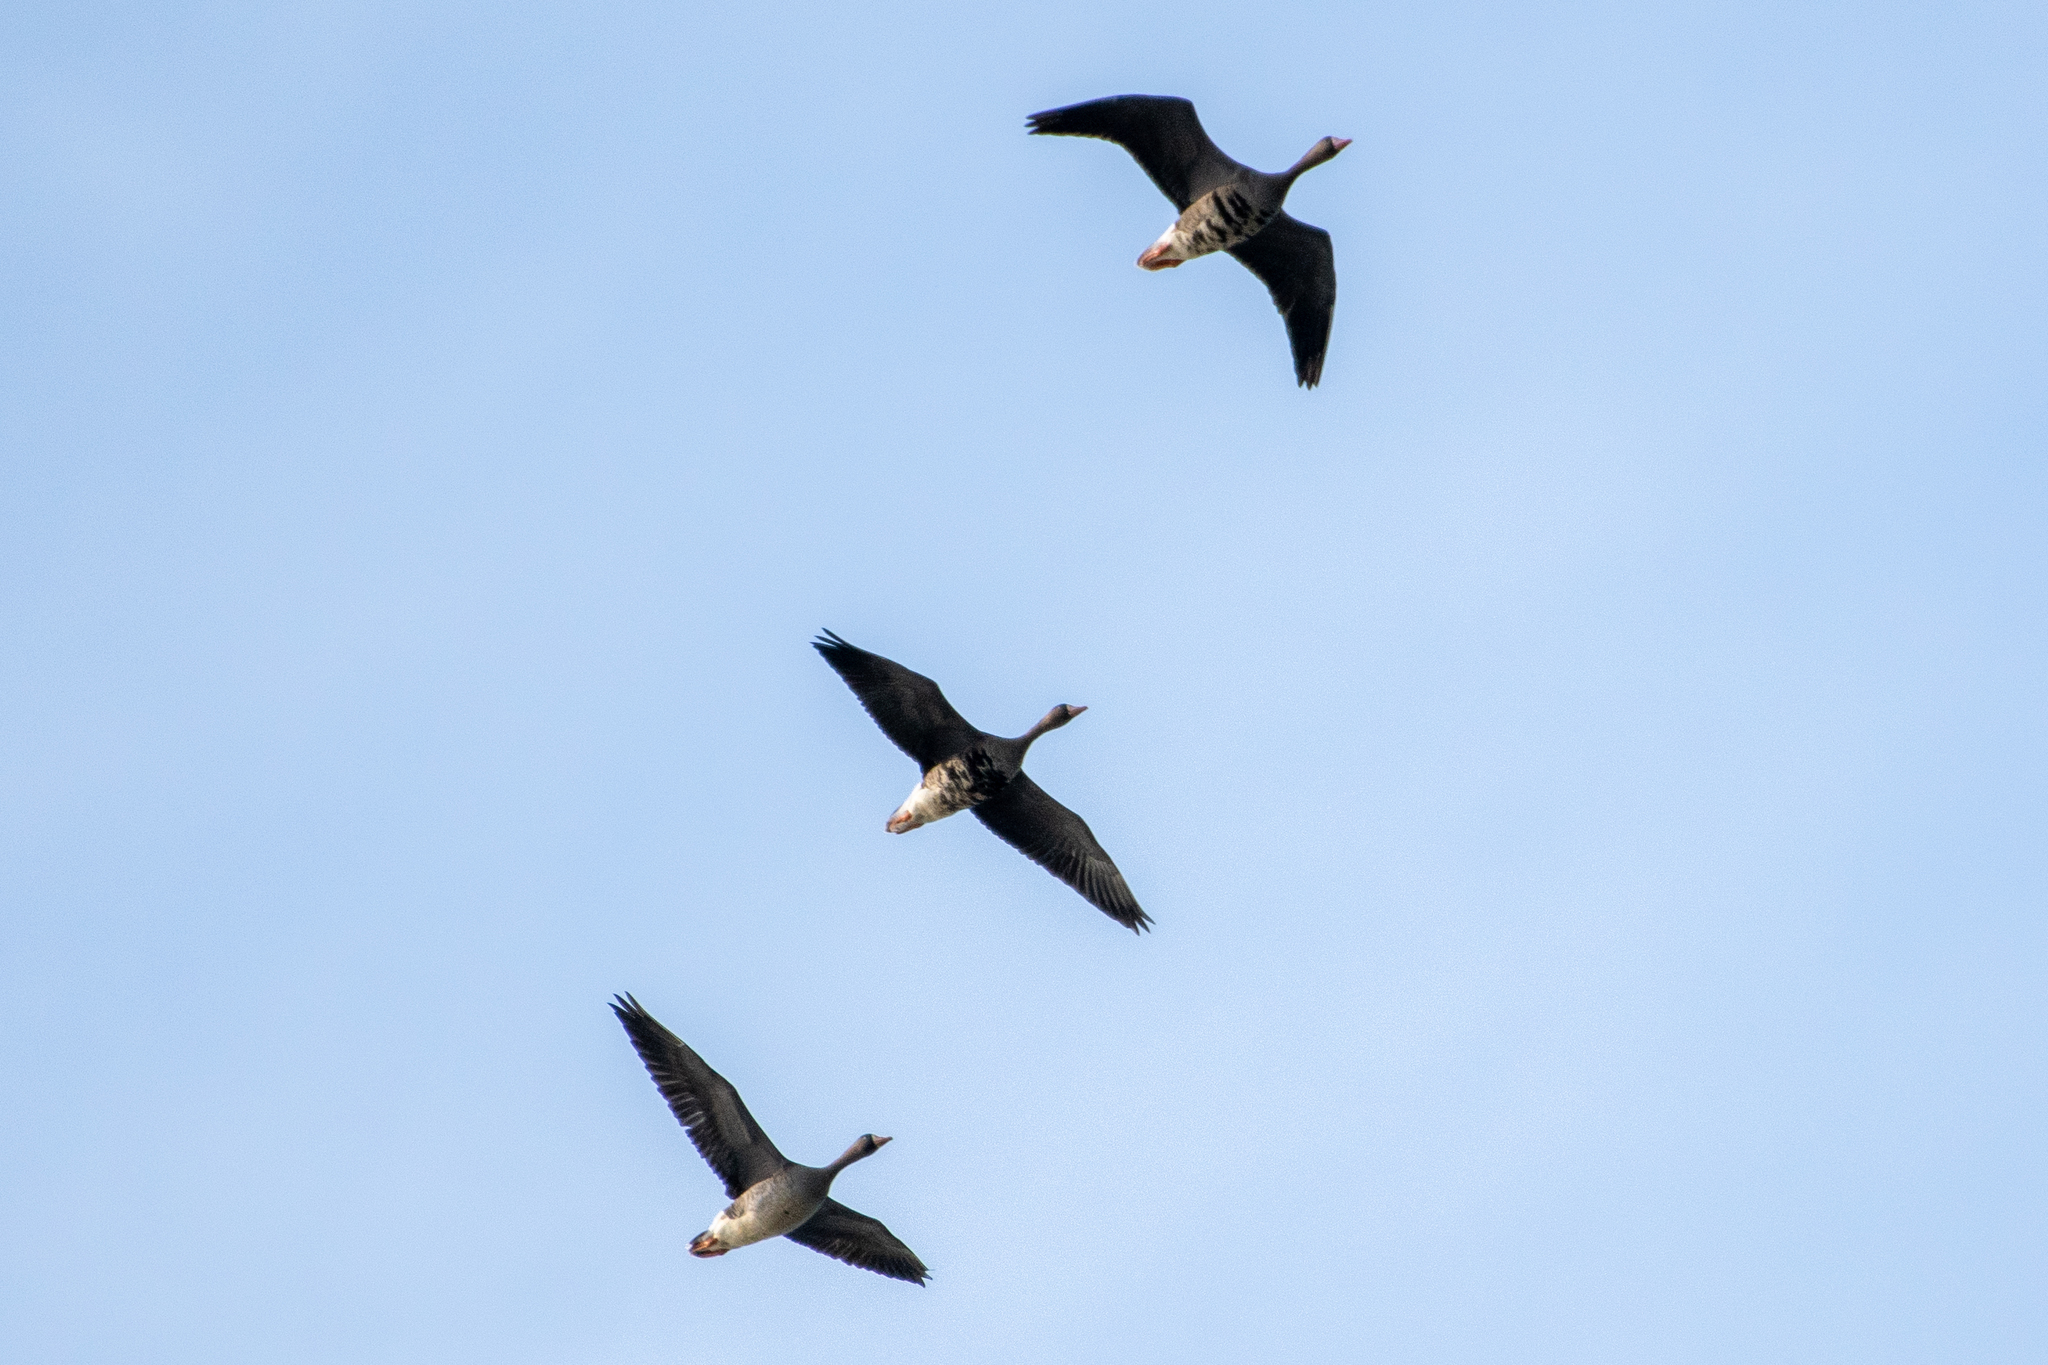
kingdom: Animalia
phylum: Chordata
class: Aves
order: Anseriformes
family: Anatidae
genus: Anser
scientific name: Anser albifrons
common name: Greater white-fronted goose
